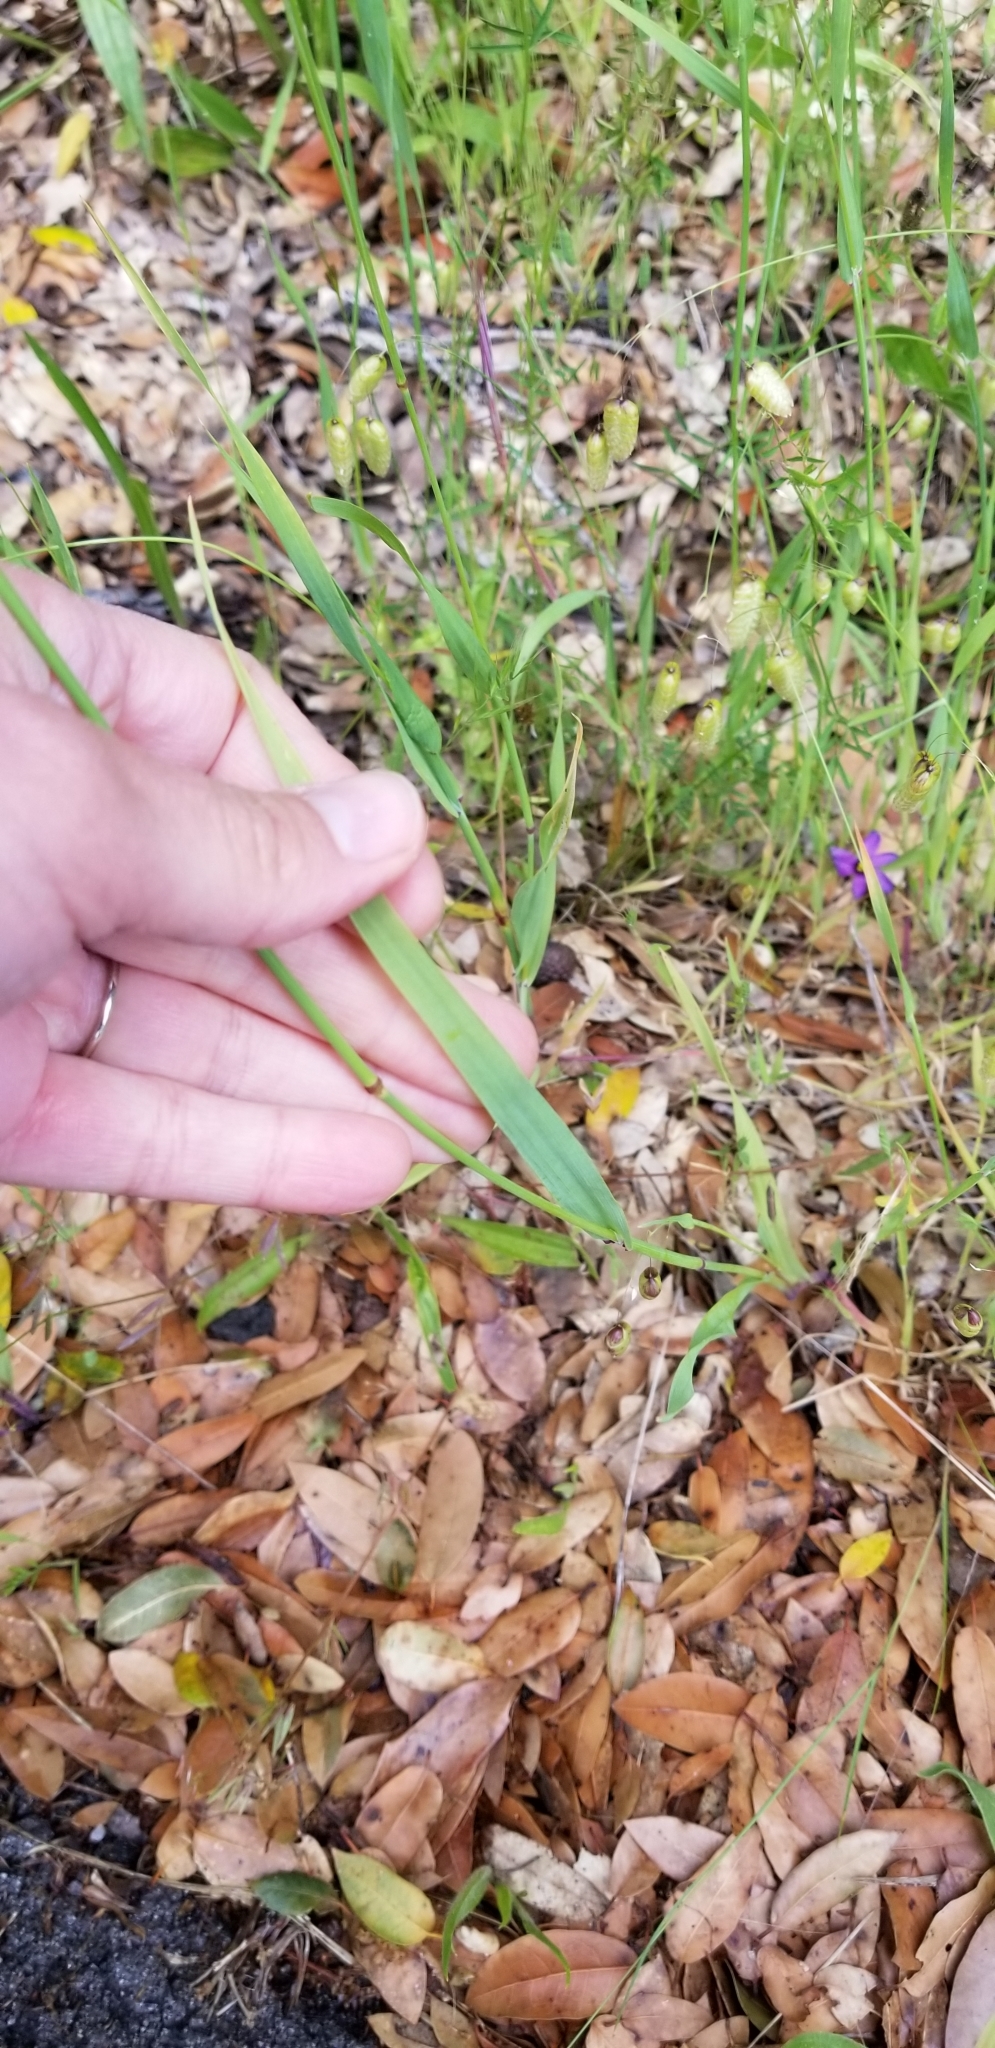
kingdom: Plantae
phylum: Tracheophyta
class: Liliopsida
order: Poales
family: Poaceae
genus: Briza
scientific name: Briza maxima
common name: Big quakinggrass
